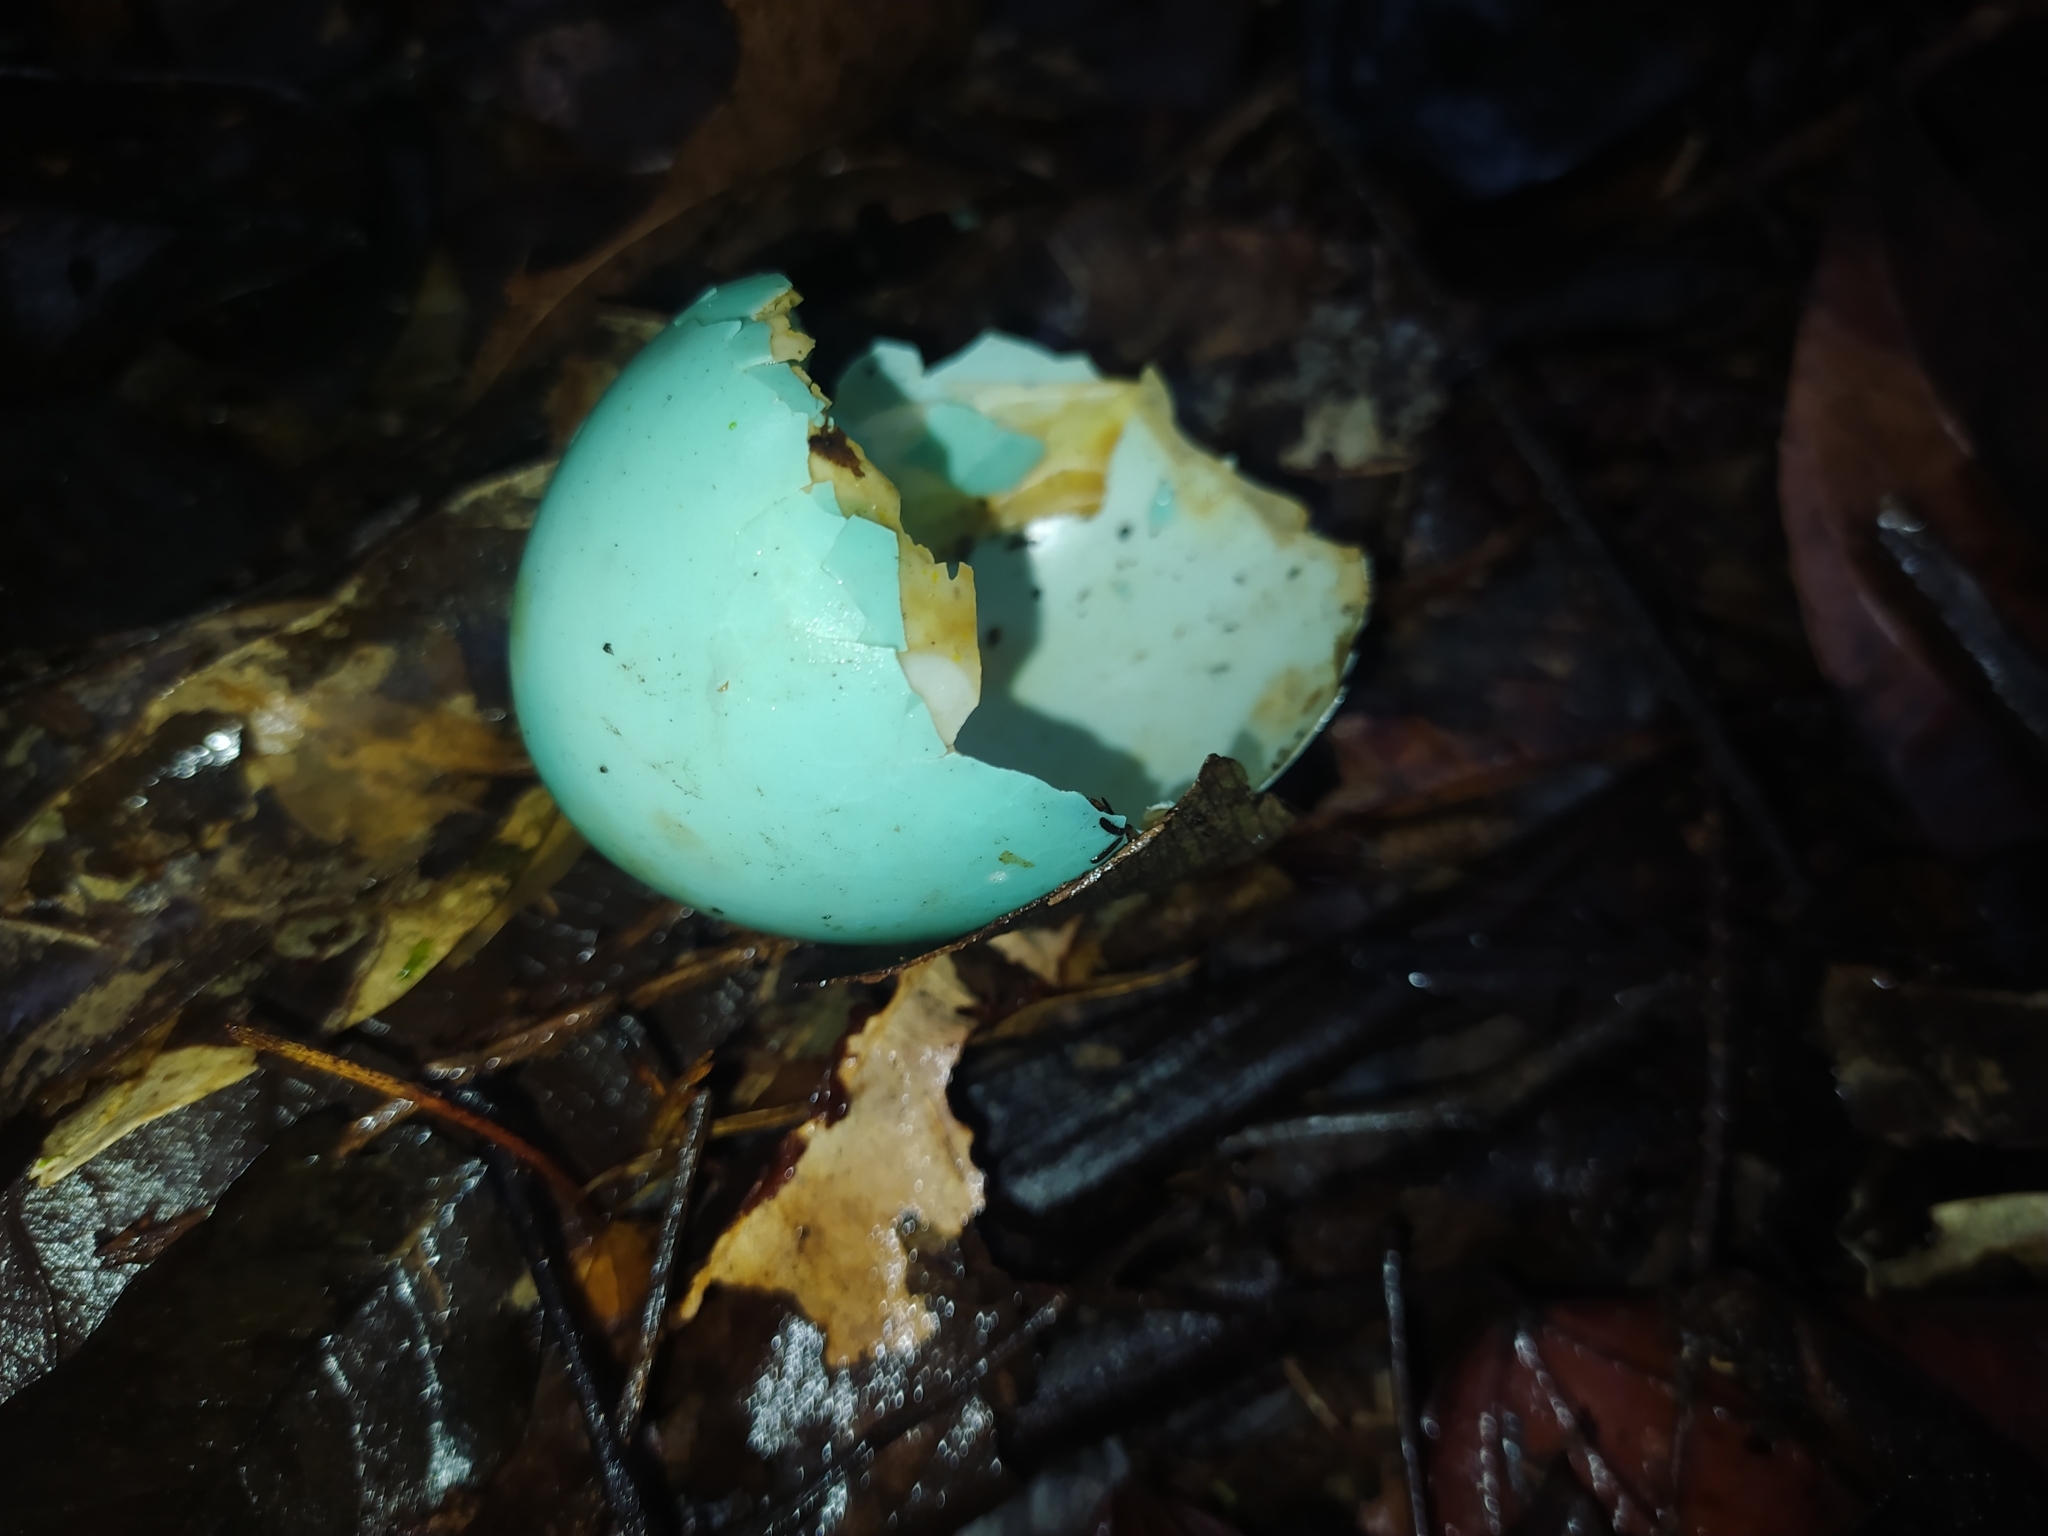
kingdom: Animalia
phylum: Chordata
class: Aves
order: Tinamiformes
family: Tinamidae
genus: Tinamus
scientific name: Tinamus major
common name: Great tinamou
